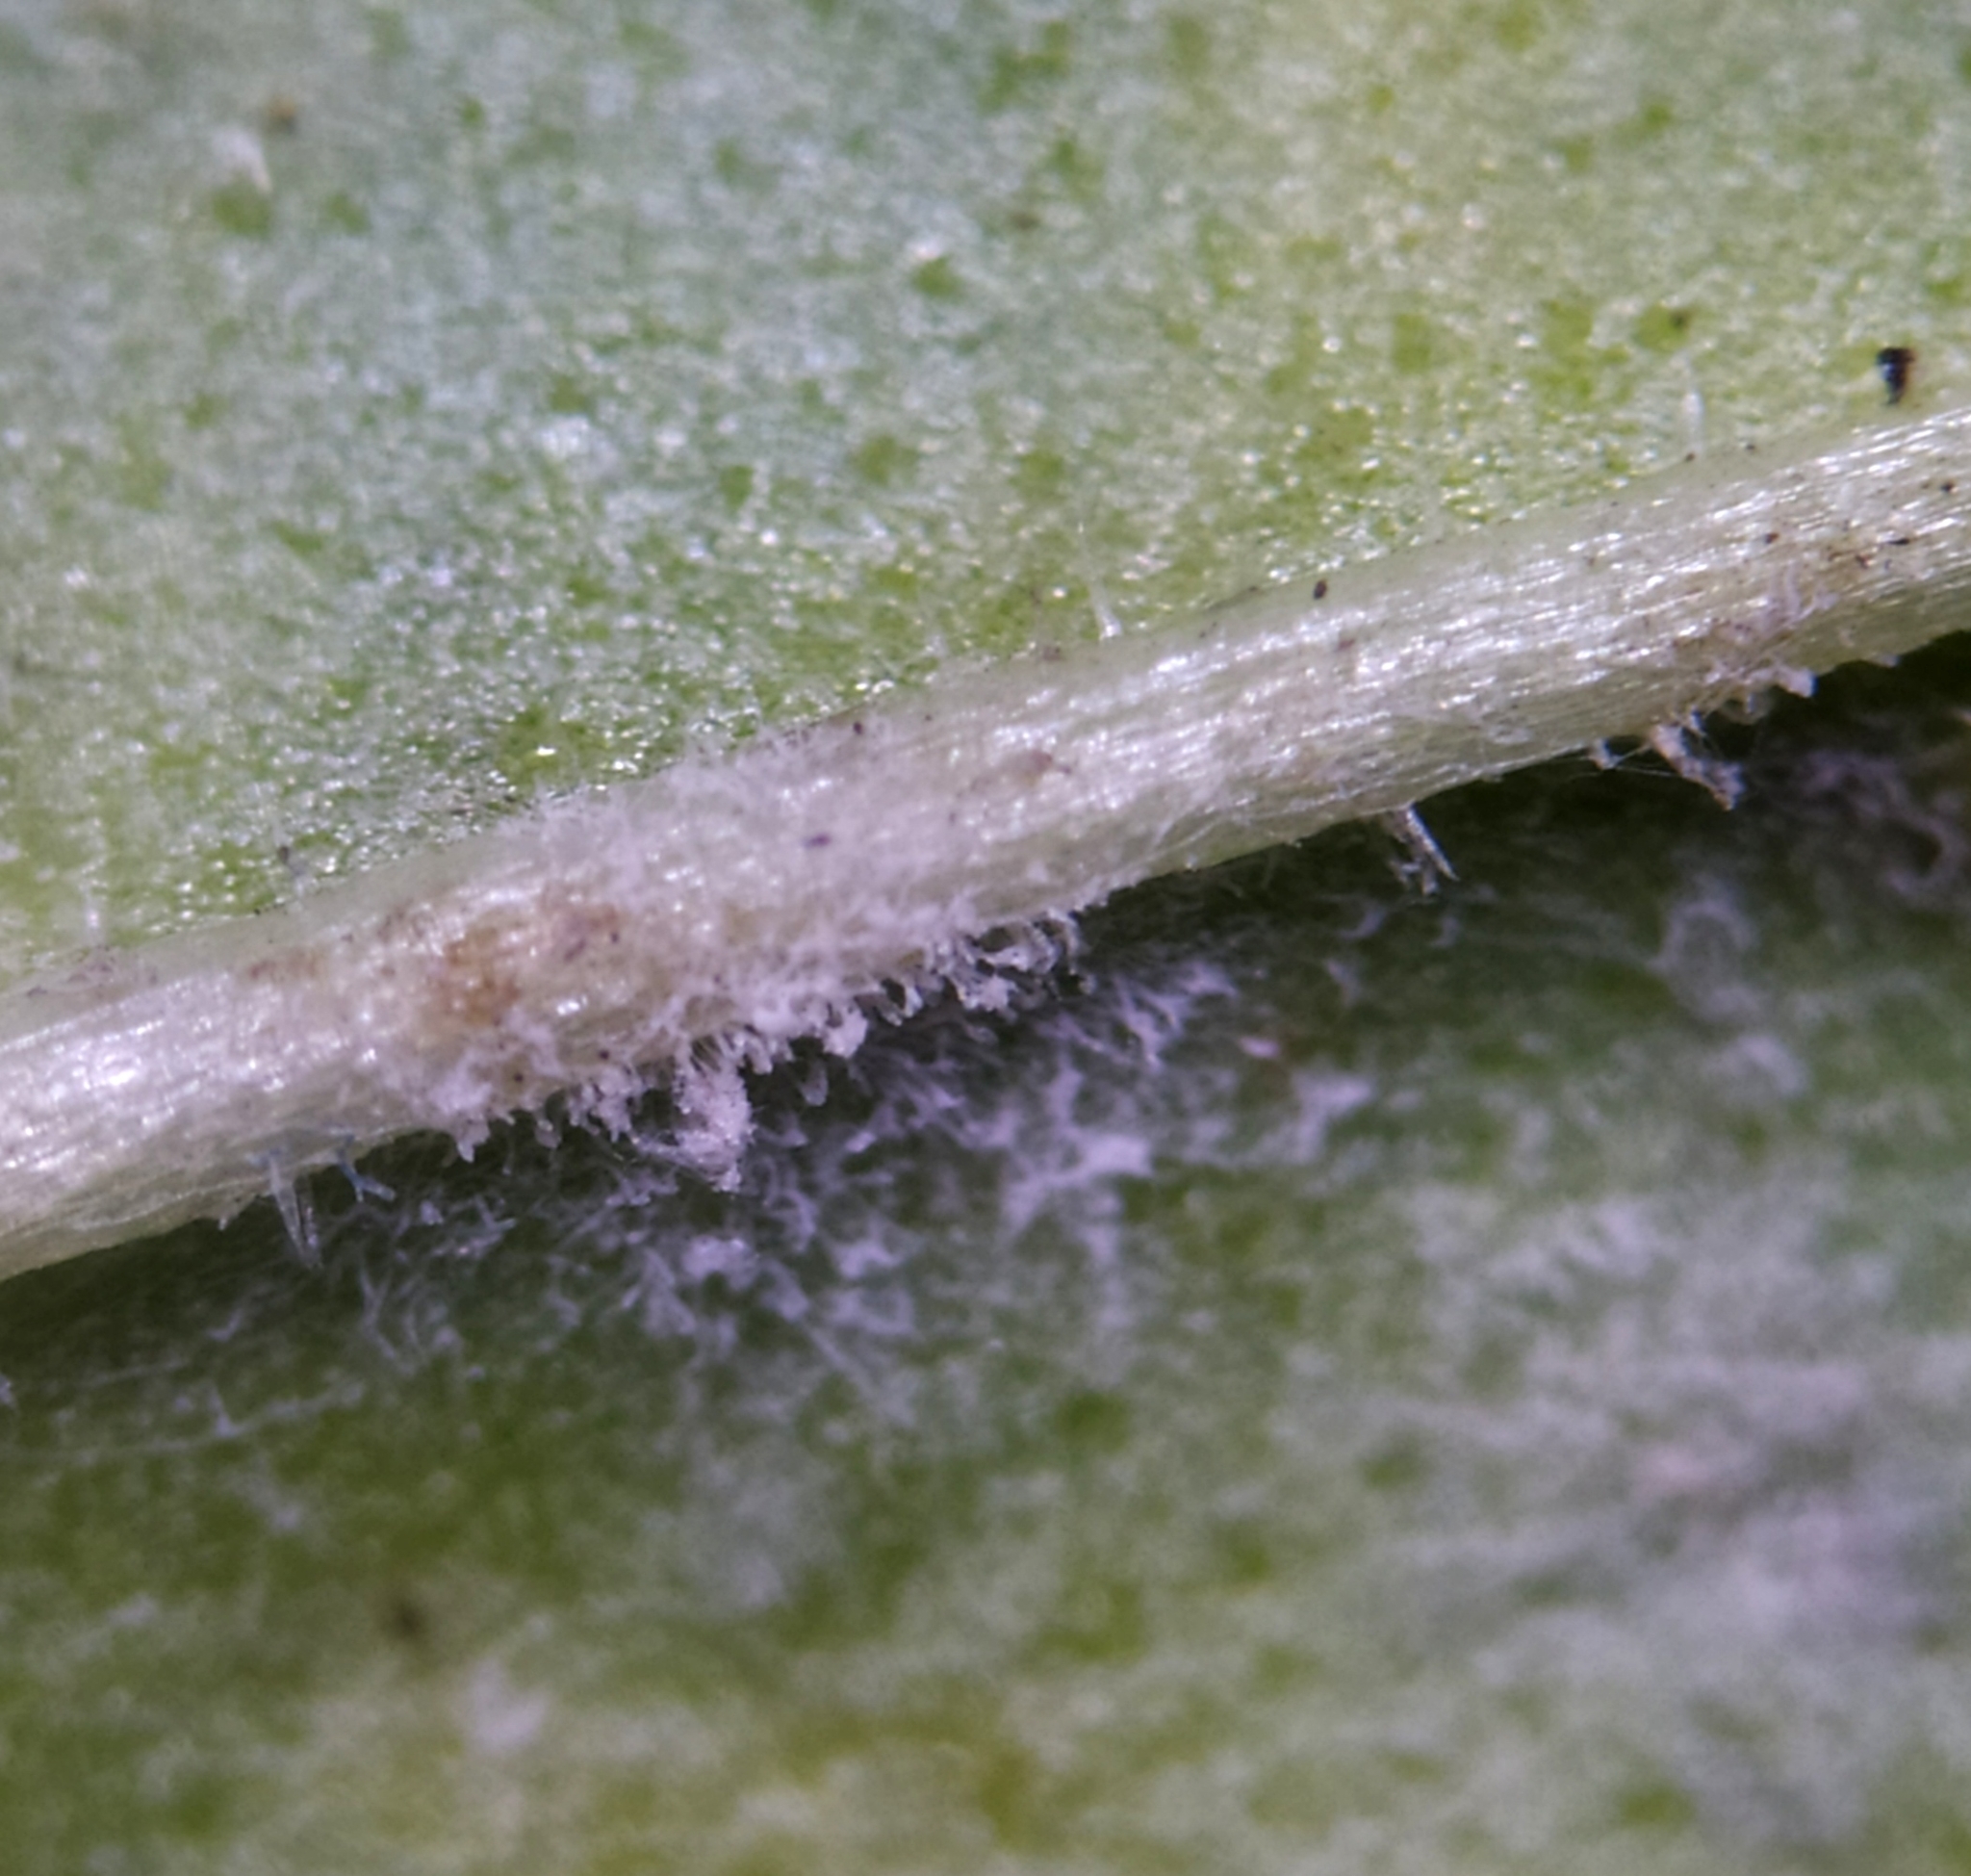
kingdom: Fungi
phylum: Ascomycota
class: Leotiomycetes
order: Helotiales
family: Erysiphaceae
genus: Golovinomyces
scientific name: Golovinomyces sordidus
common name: Plantain mildew
